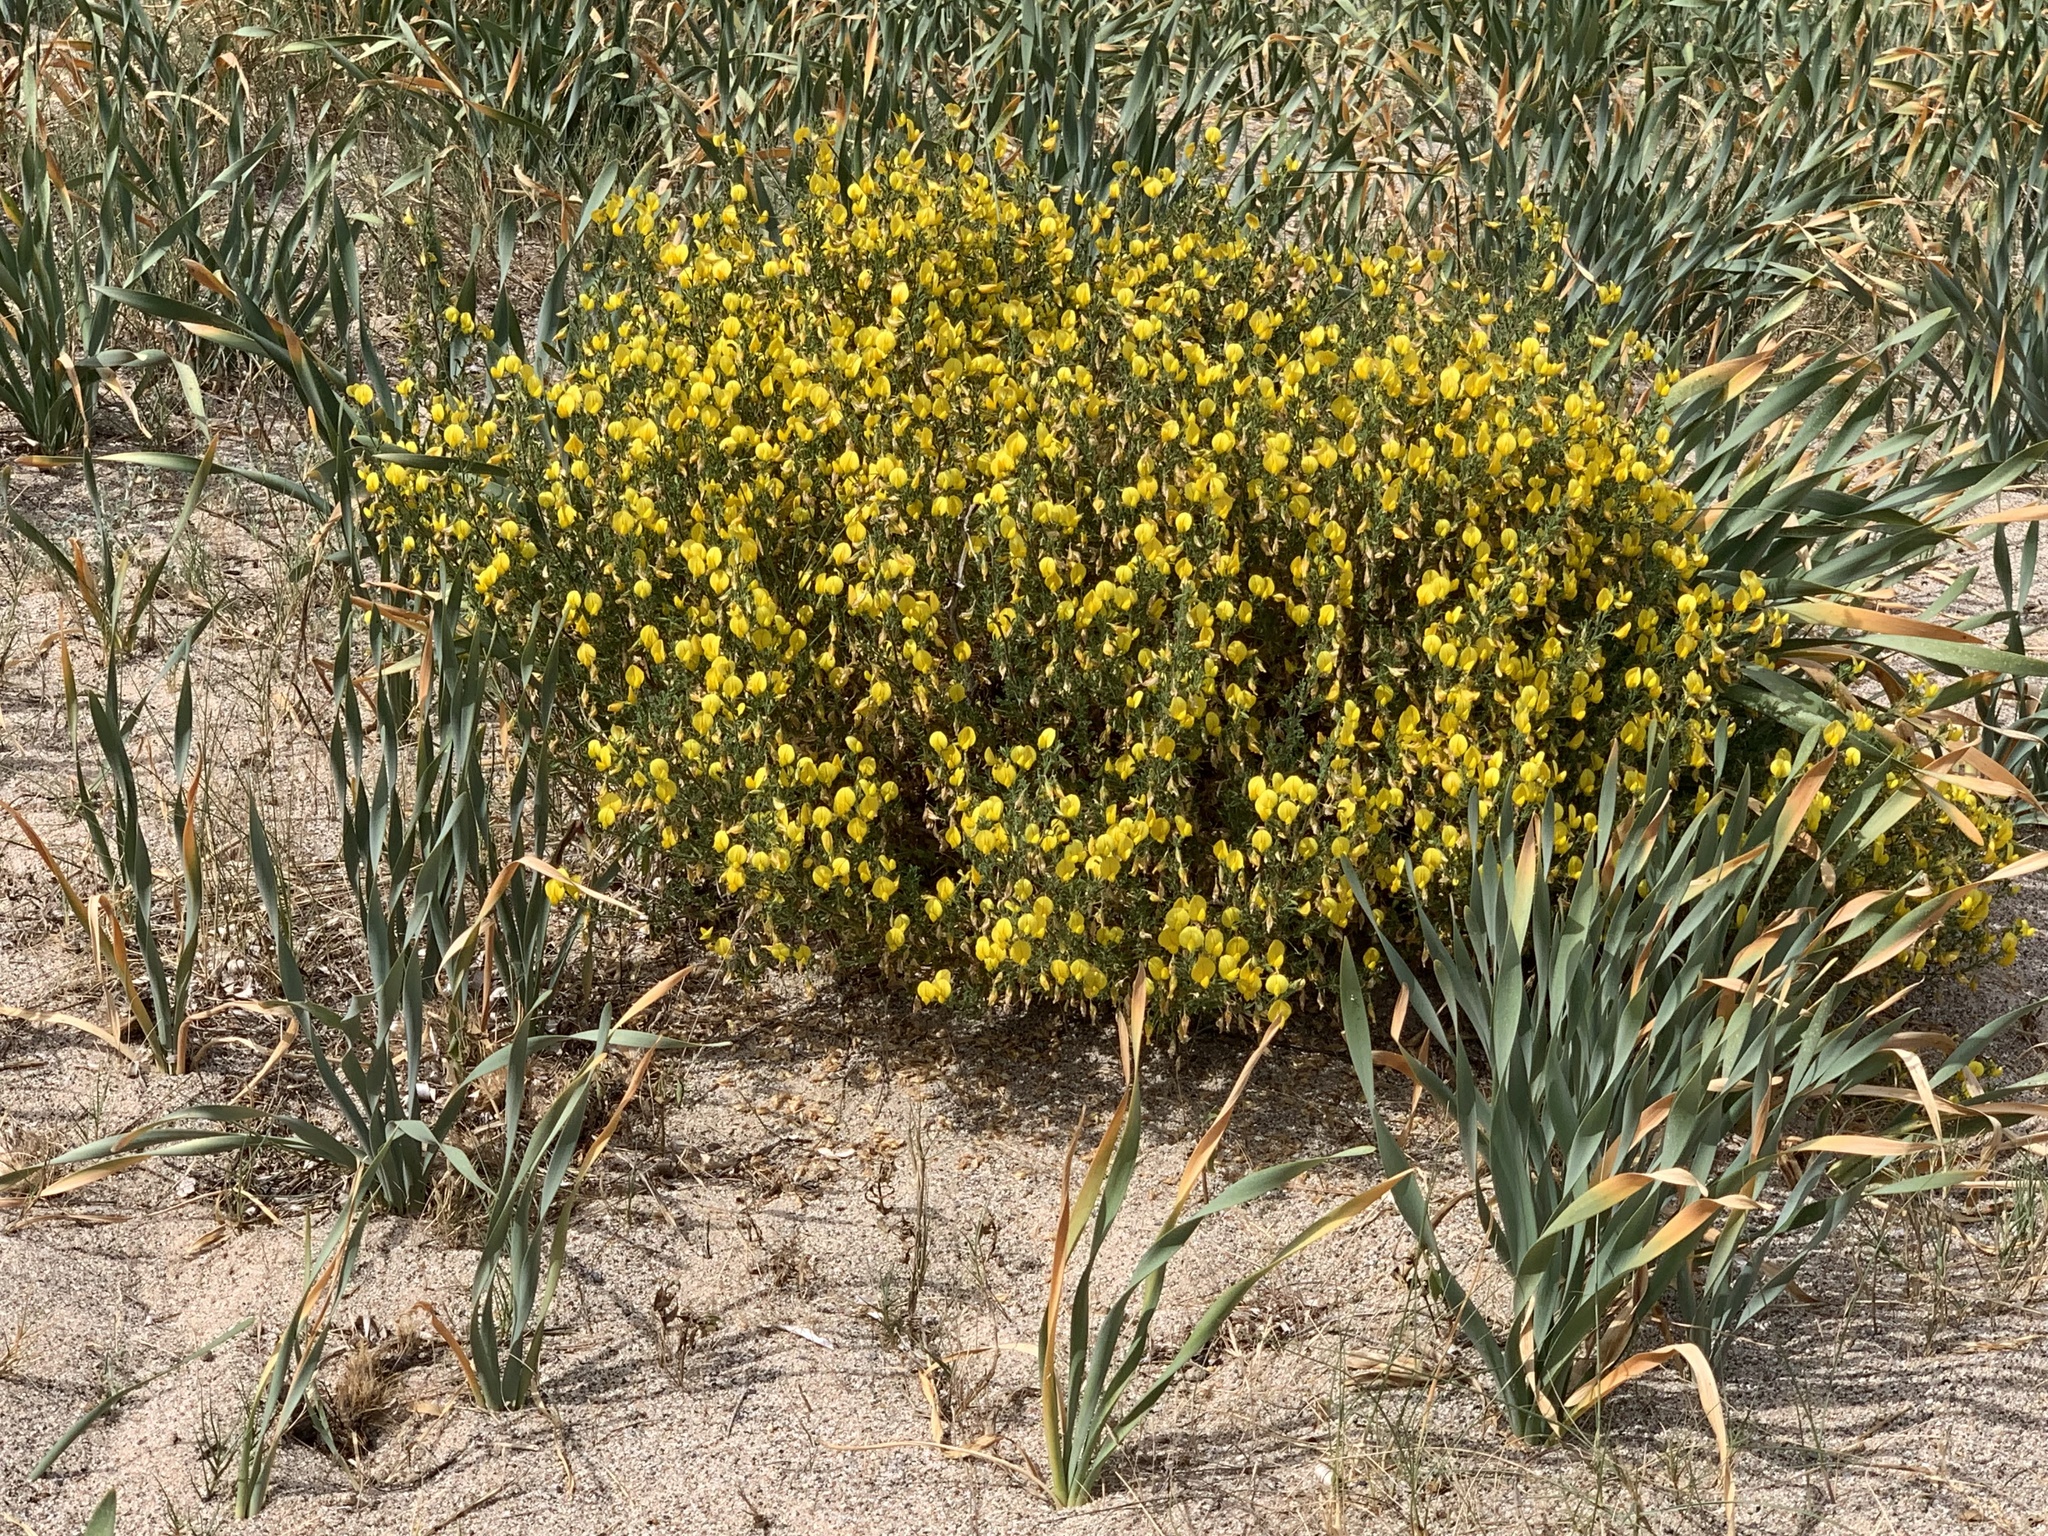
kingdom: Plantae
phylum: Tracheophyta
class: Magnoliopsida
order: Fabales
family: Fabaceae
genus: Ononis
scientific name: Ononis ramosissima
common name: Bush restharrow
